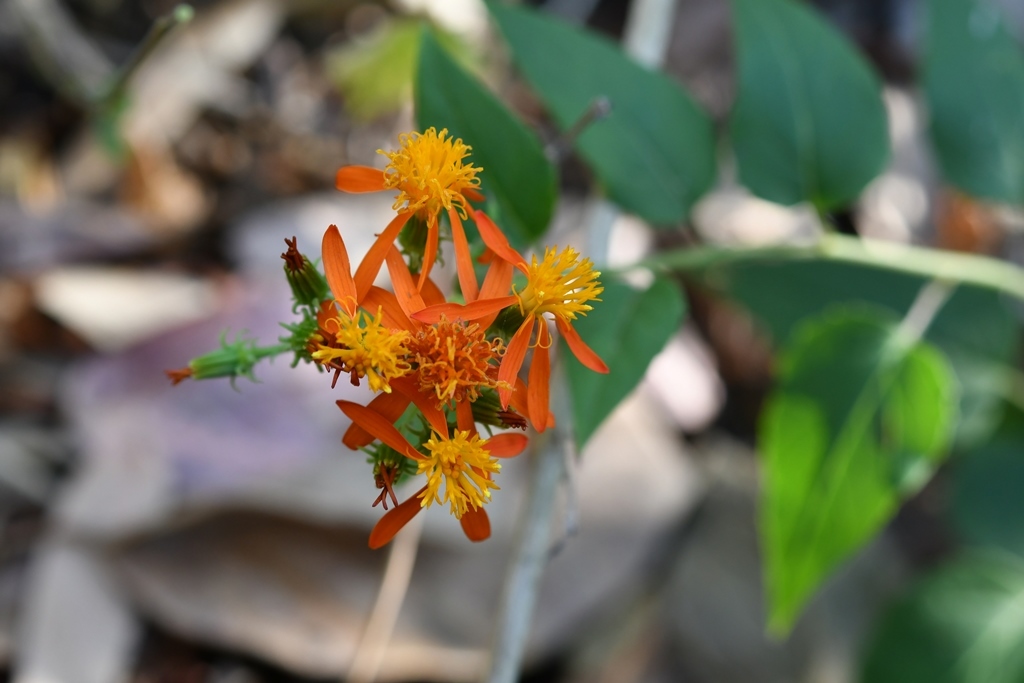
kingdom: Plantae
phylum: Tracheophyta
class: Magnoliopsida
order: Asterales
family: Asteraceae
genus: Pseudogynoxys
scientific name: Pseudogynoxys haenkei
